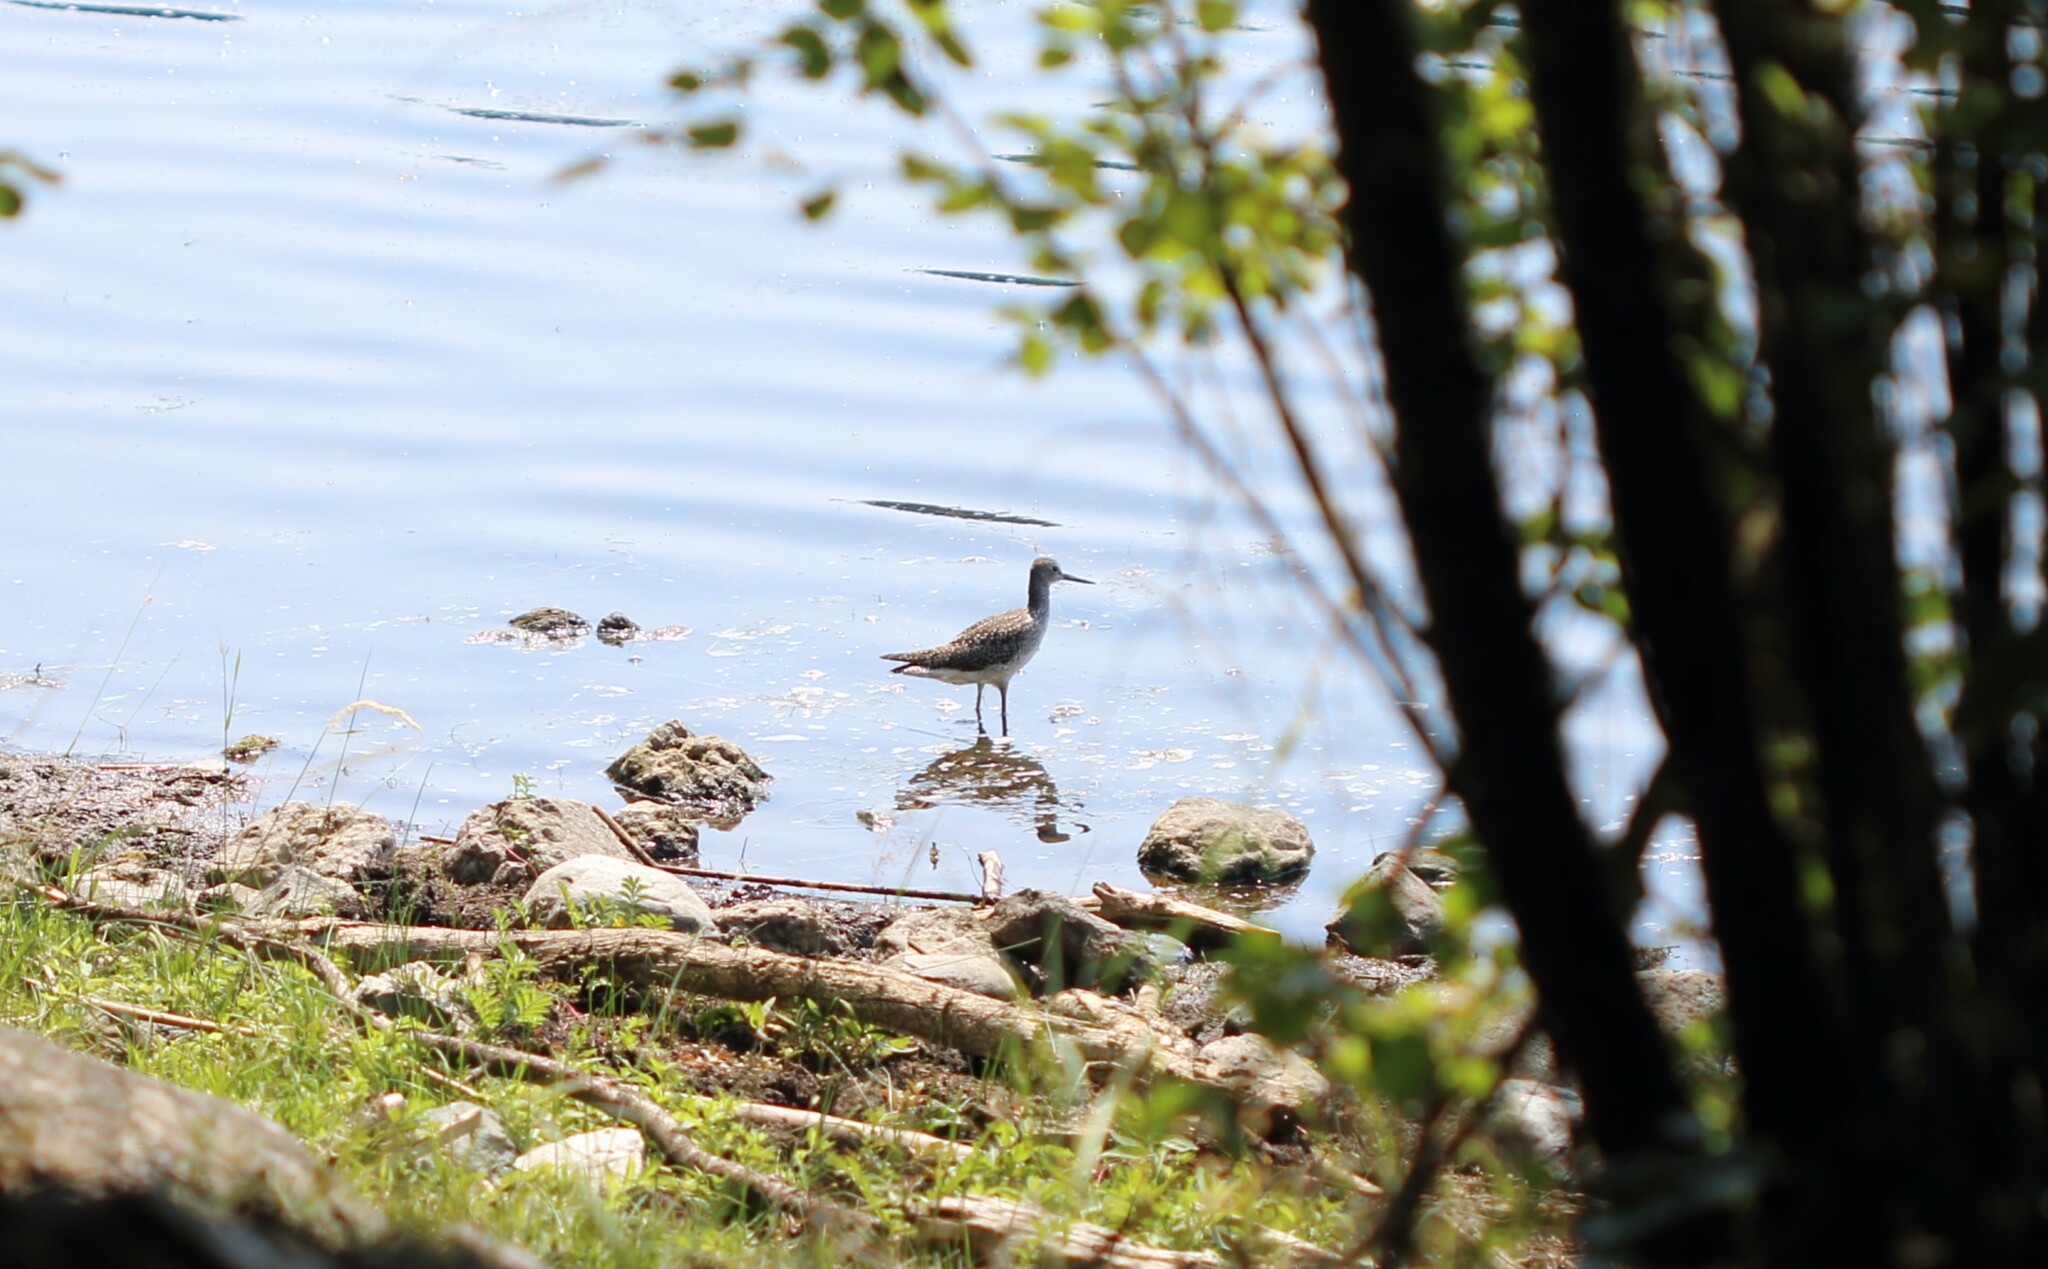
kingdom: Animalia
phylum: Chordata
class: Aves
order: Charadriiformes
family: Scolopacidae
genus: Tringa
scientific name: Tringa melanoleuca
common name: Greater yellowlegs
